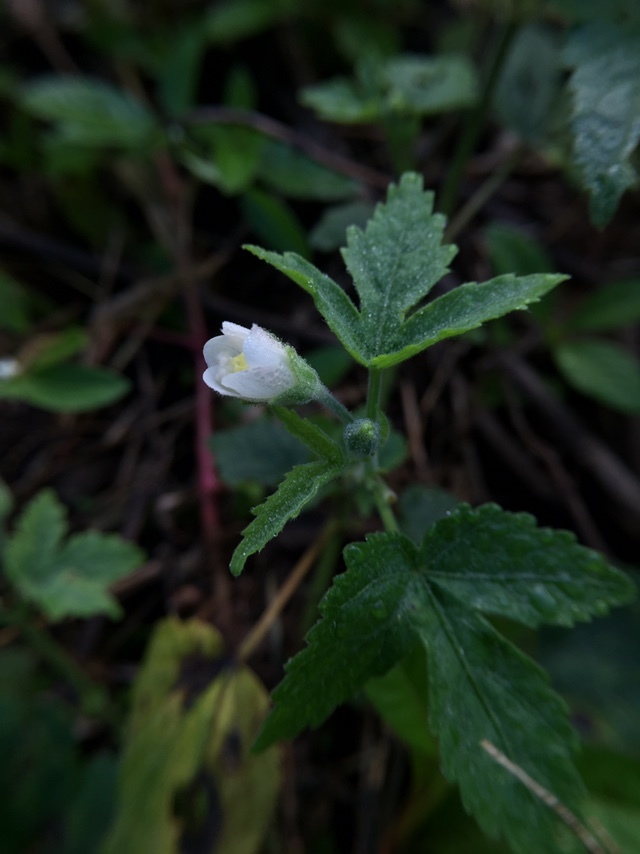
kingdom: Plantae
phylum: Tracheophyta
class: Magnoliopsida
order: Malvales
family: Malvaceae
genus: Hibiscus
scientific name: Hibiscus lobatus
